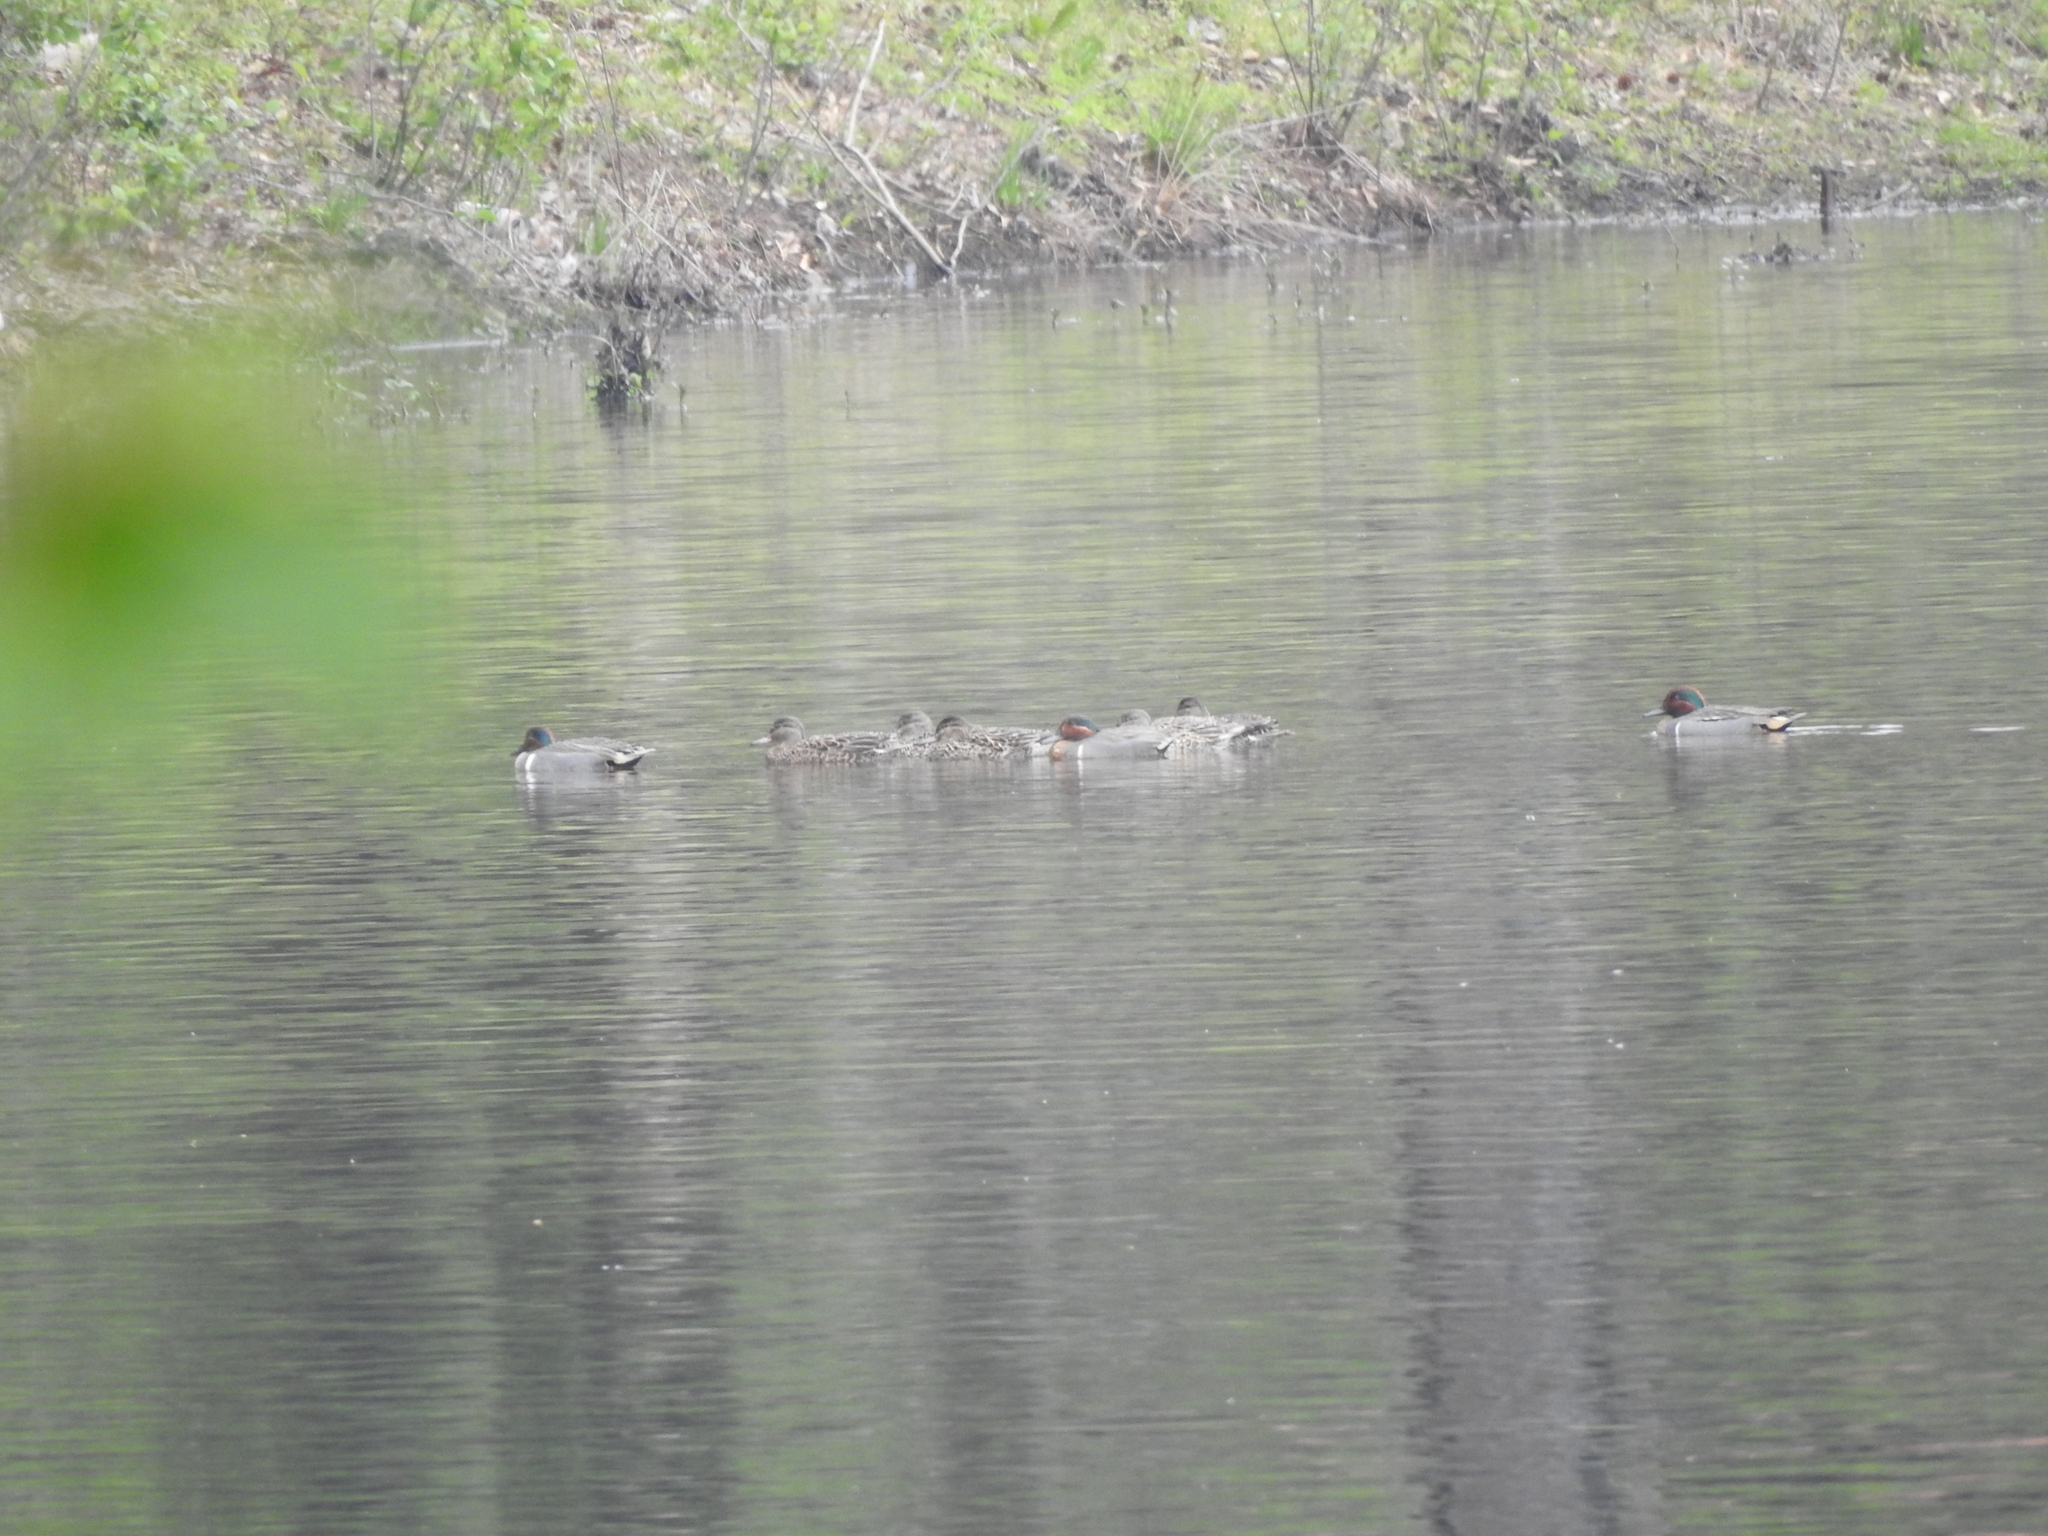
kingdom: Animalia
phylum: Chordata
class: Aves
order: Anseriformes
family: Anatidae
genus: Anas
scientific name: Anas crecca
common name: Eurasian teal
